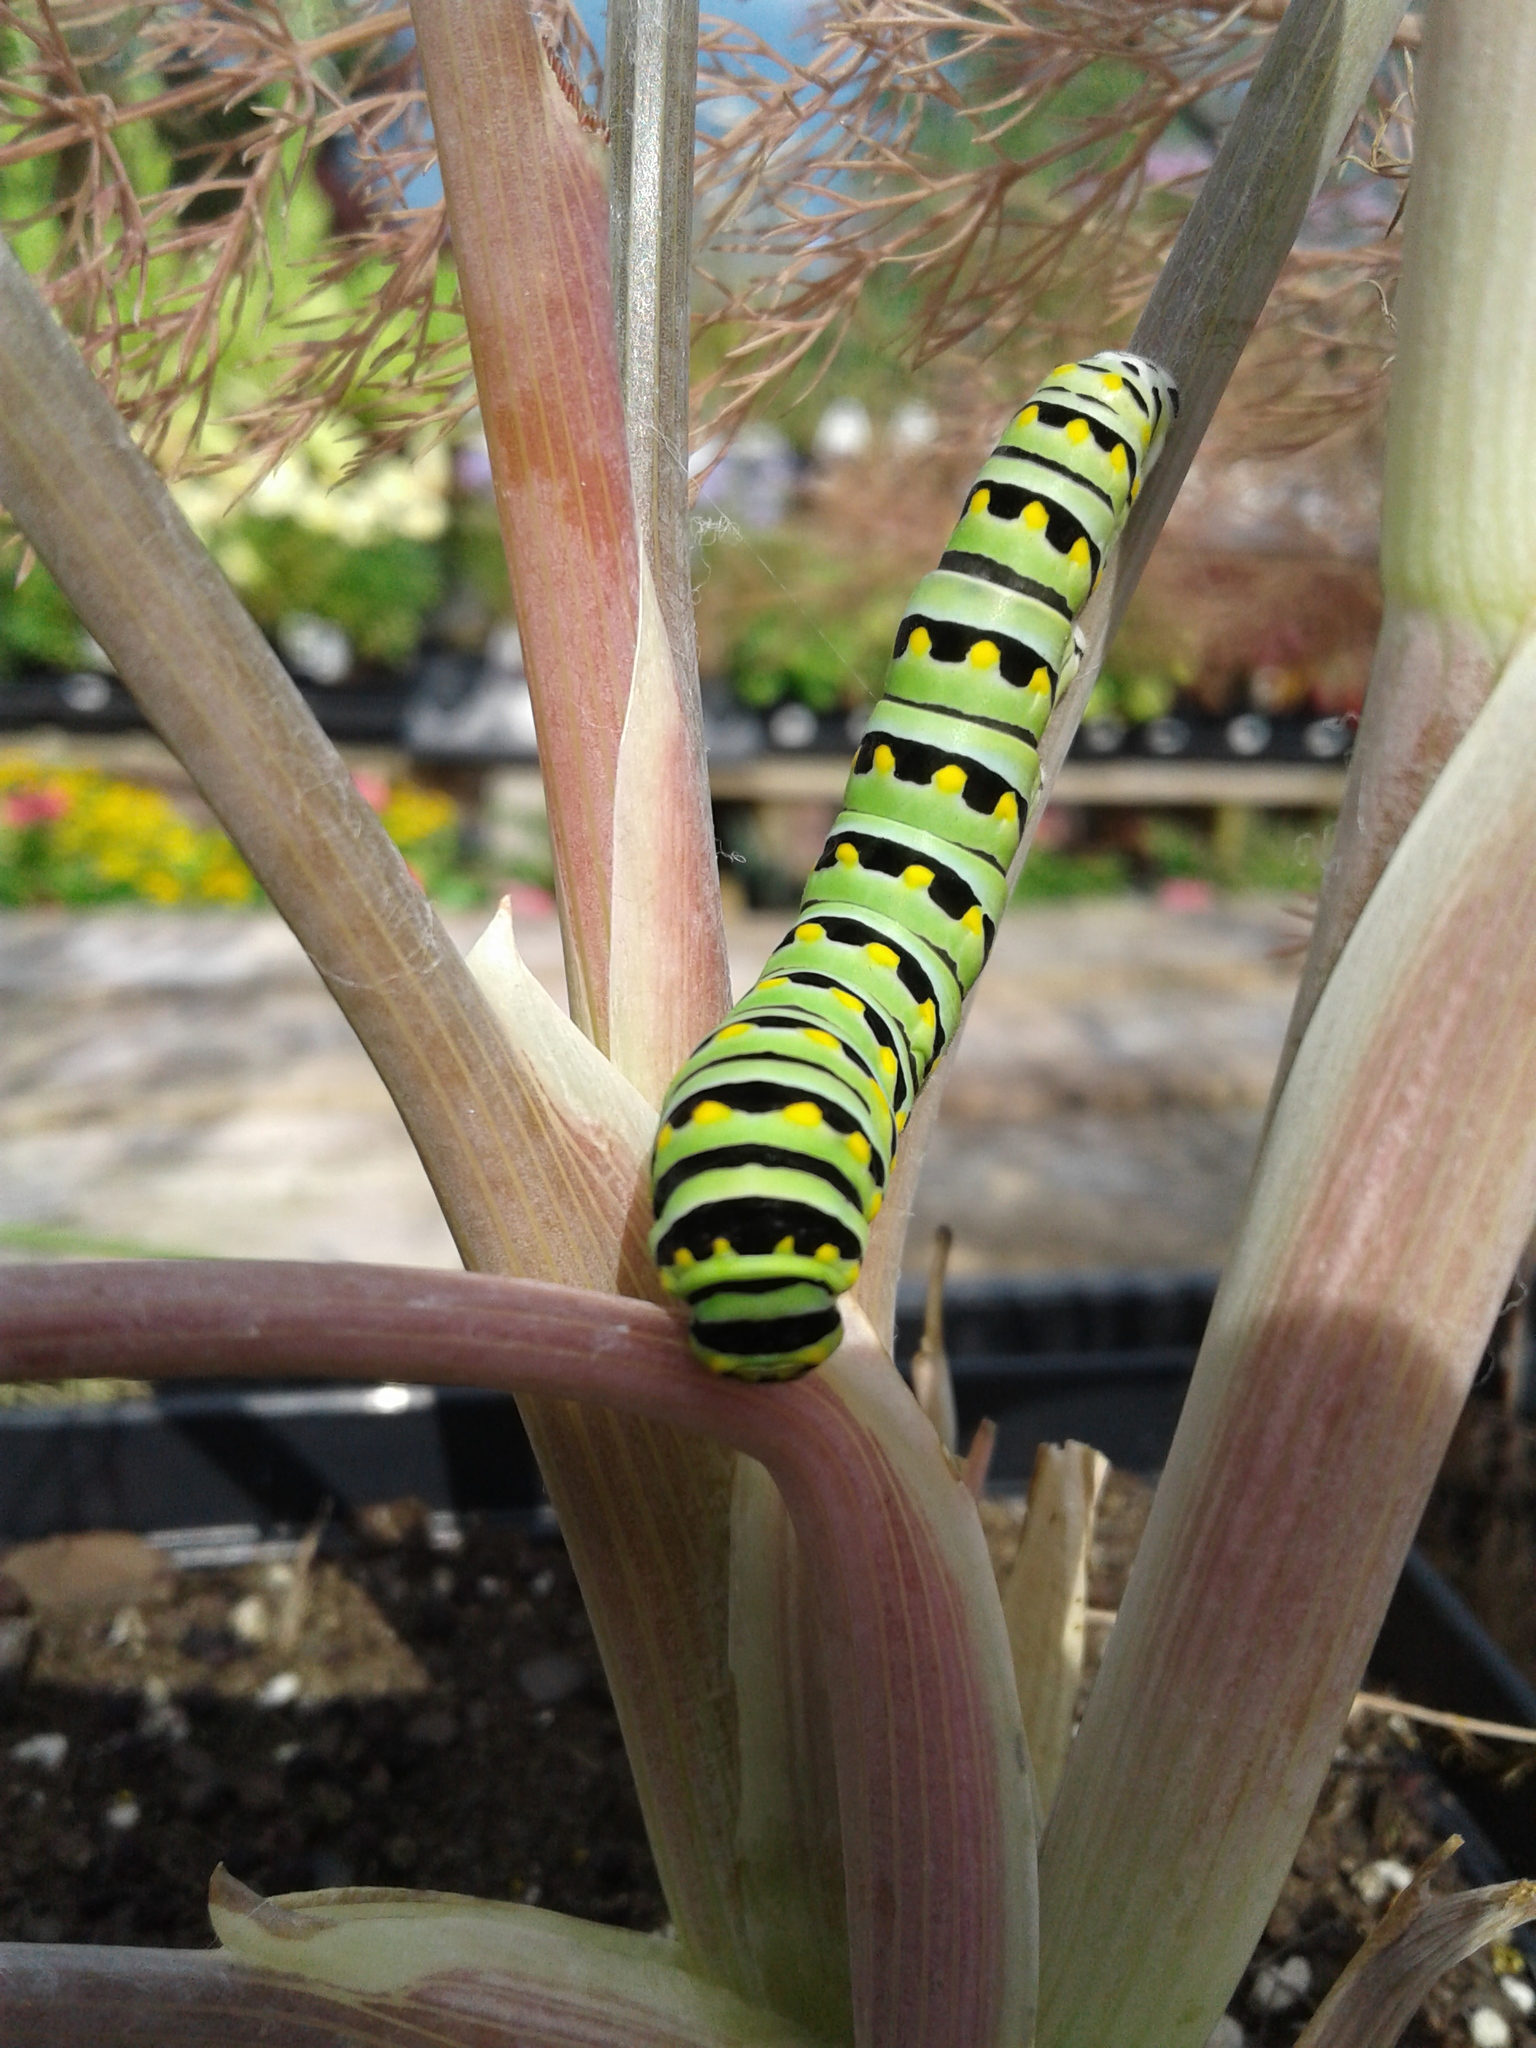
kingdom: Animalia
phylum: Arthropoda
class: Insecta
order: Lepidoptera
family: Papilionidae
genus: Papilio
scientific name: Papilio polyxenes
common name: Black swallowtail
